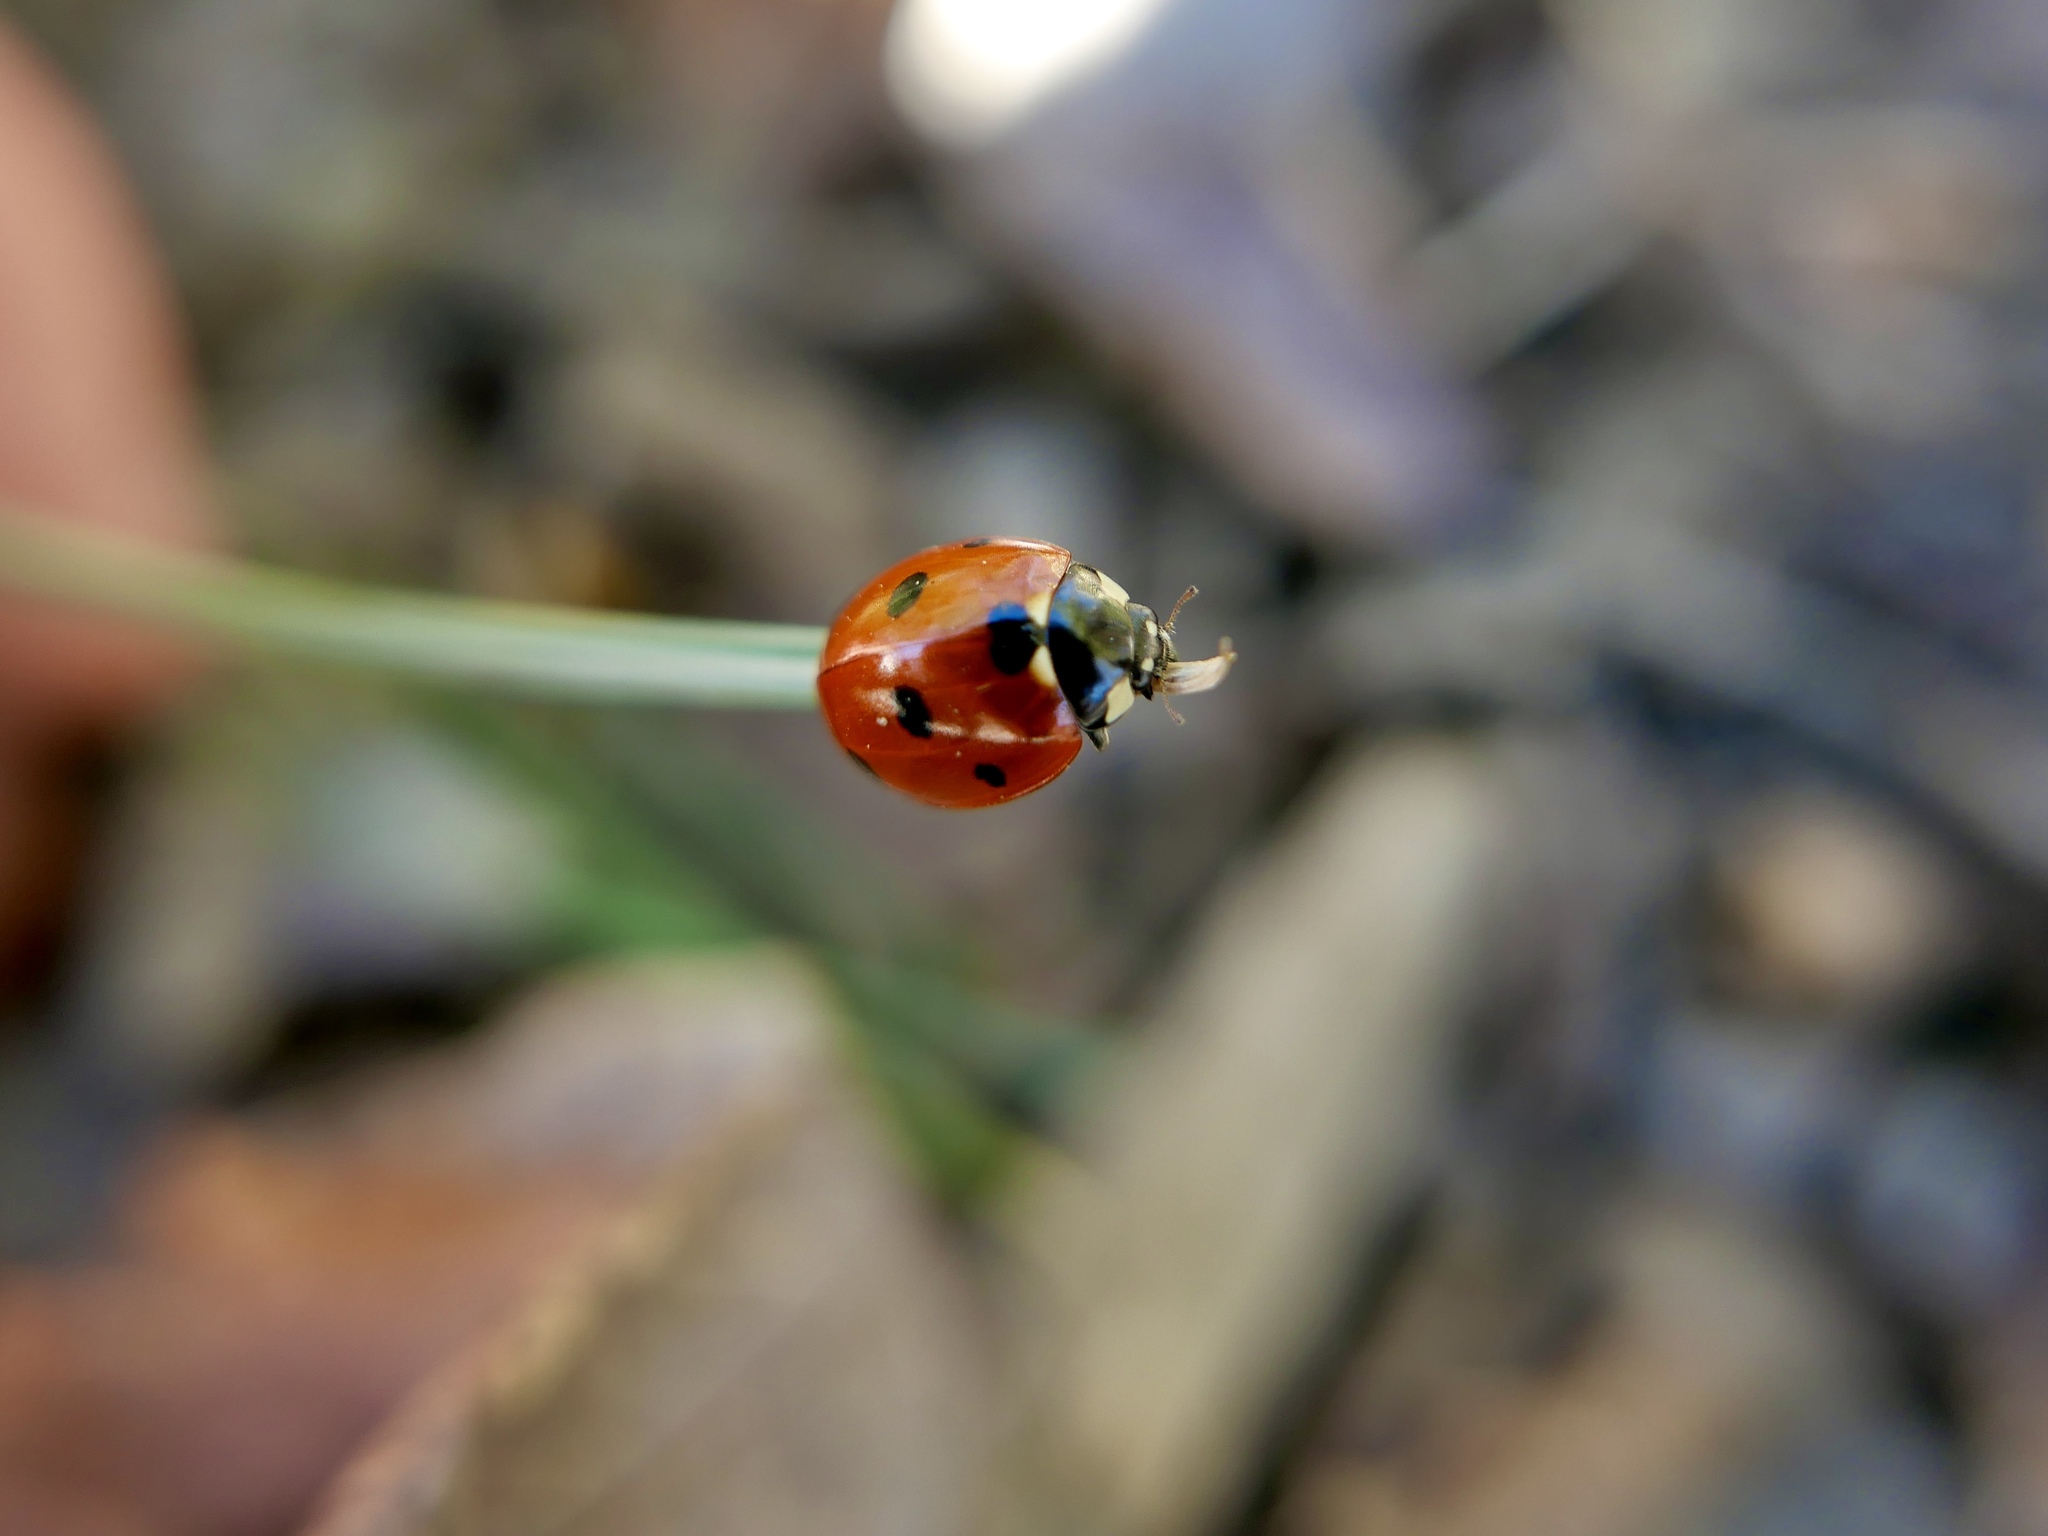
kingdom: Animalia
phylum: Arthropoda
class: Insecta
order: Coleoptera
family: Coccinellidae
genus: Coccinella
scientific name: Coccinella septempunctata
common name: Sevenspotted lady beetle
